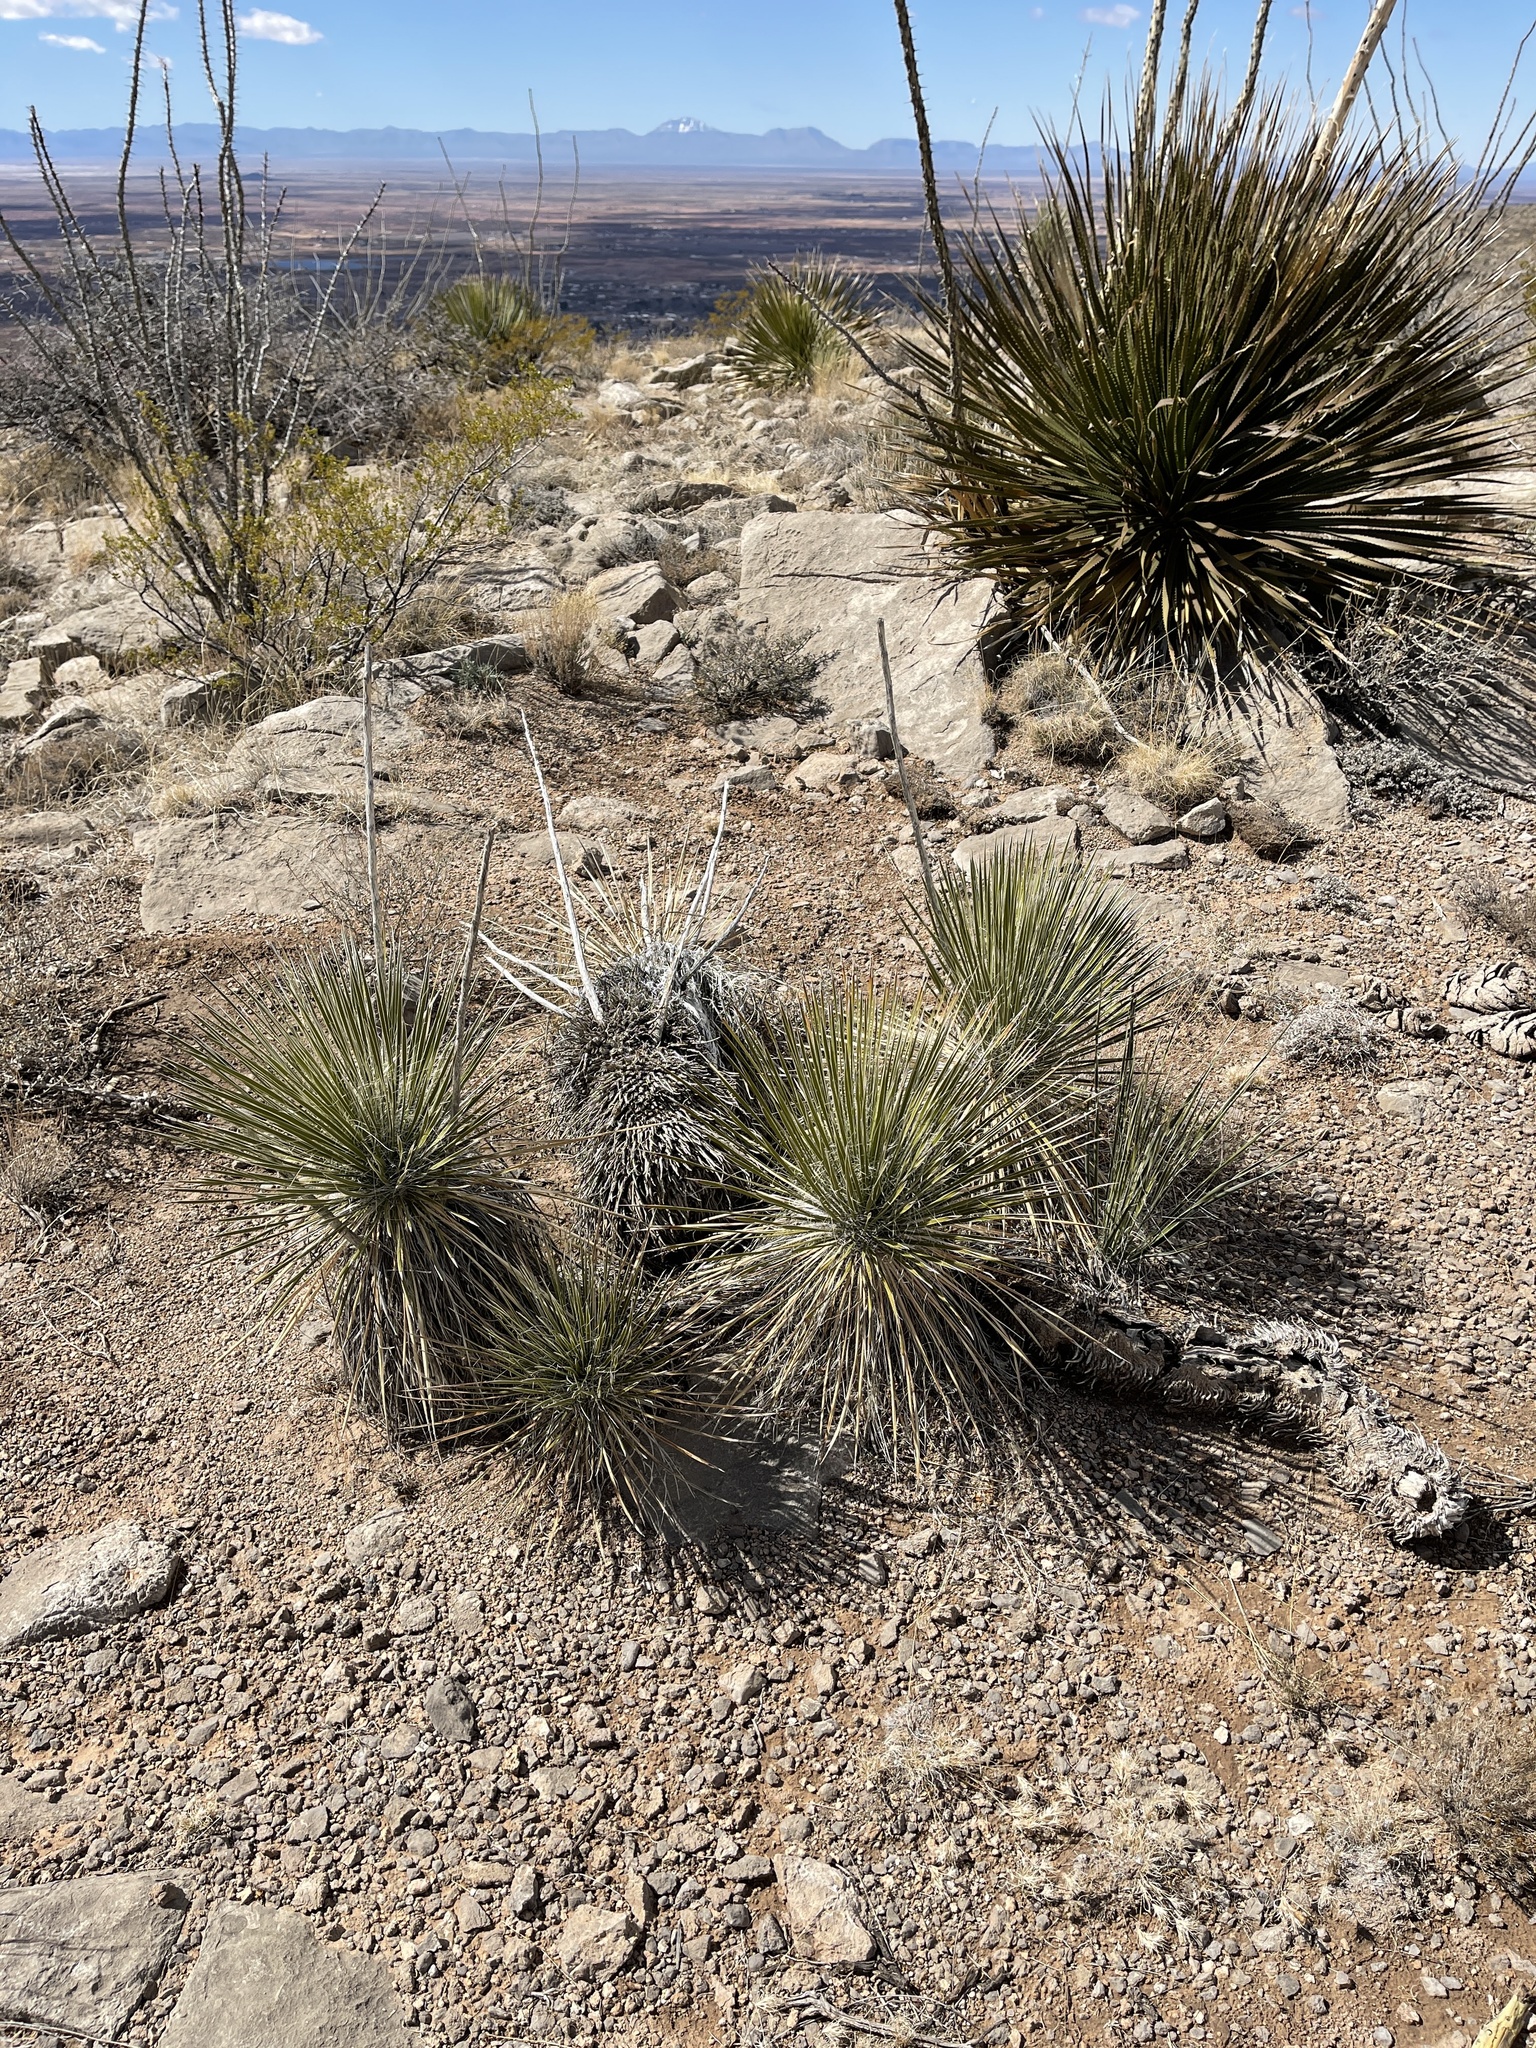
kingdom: Plantae
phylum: Tracheophyta
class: Liliopsida
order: Asparagales
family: Asparagaceae
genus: Yucca
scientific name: Yucca elata
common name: Palmella
